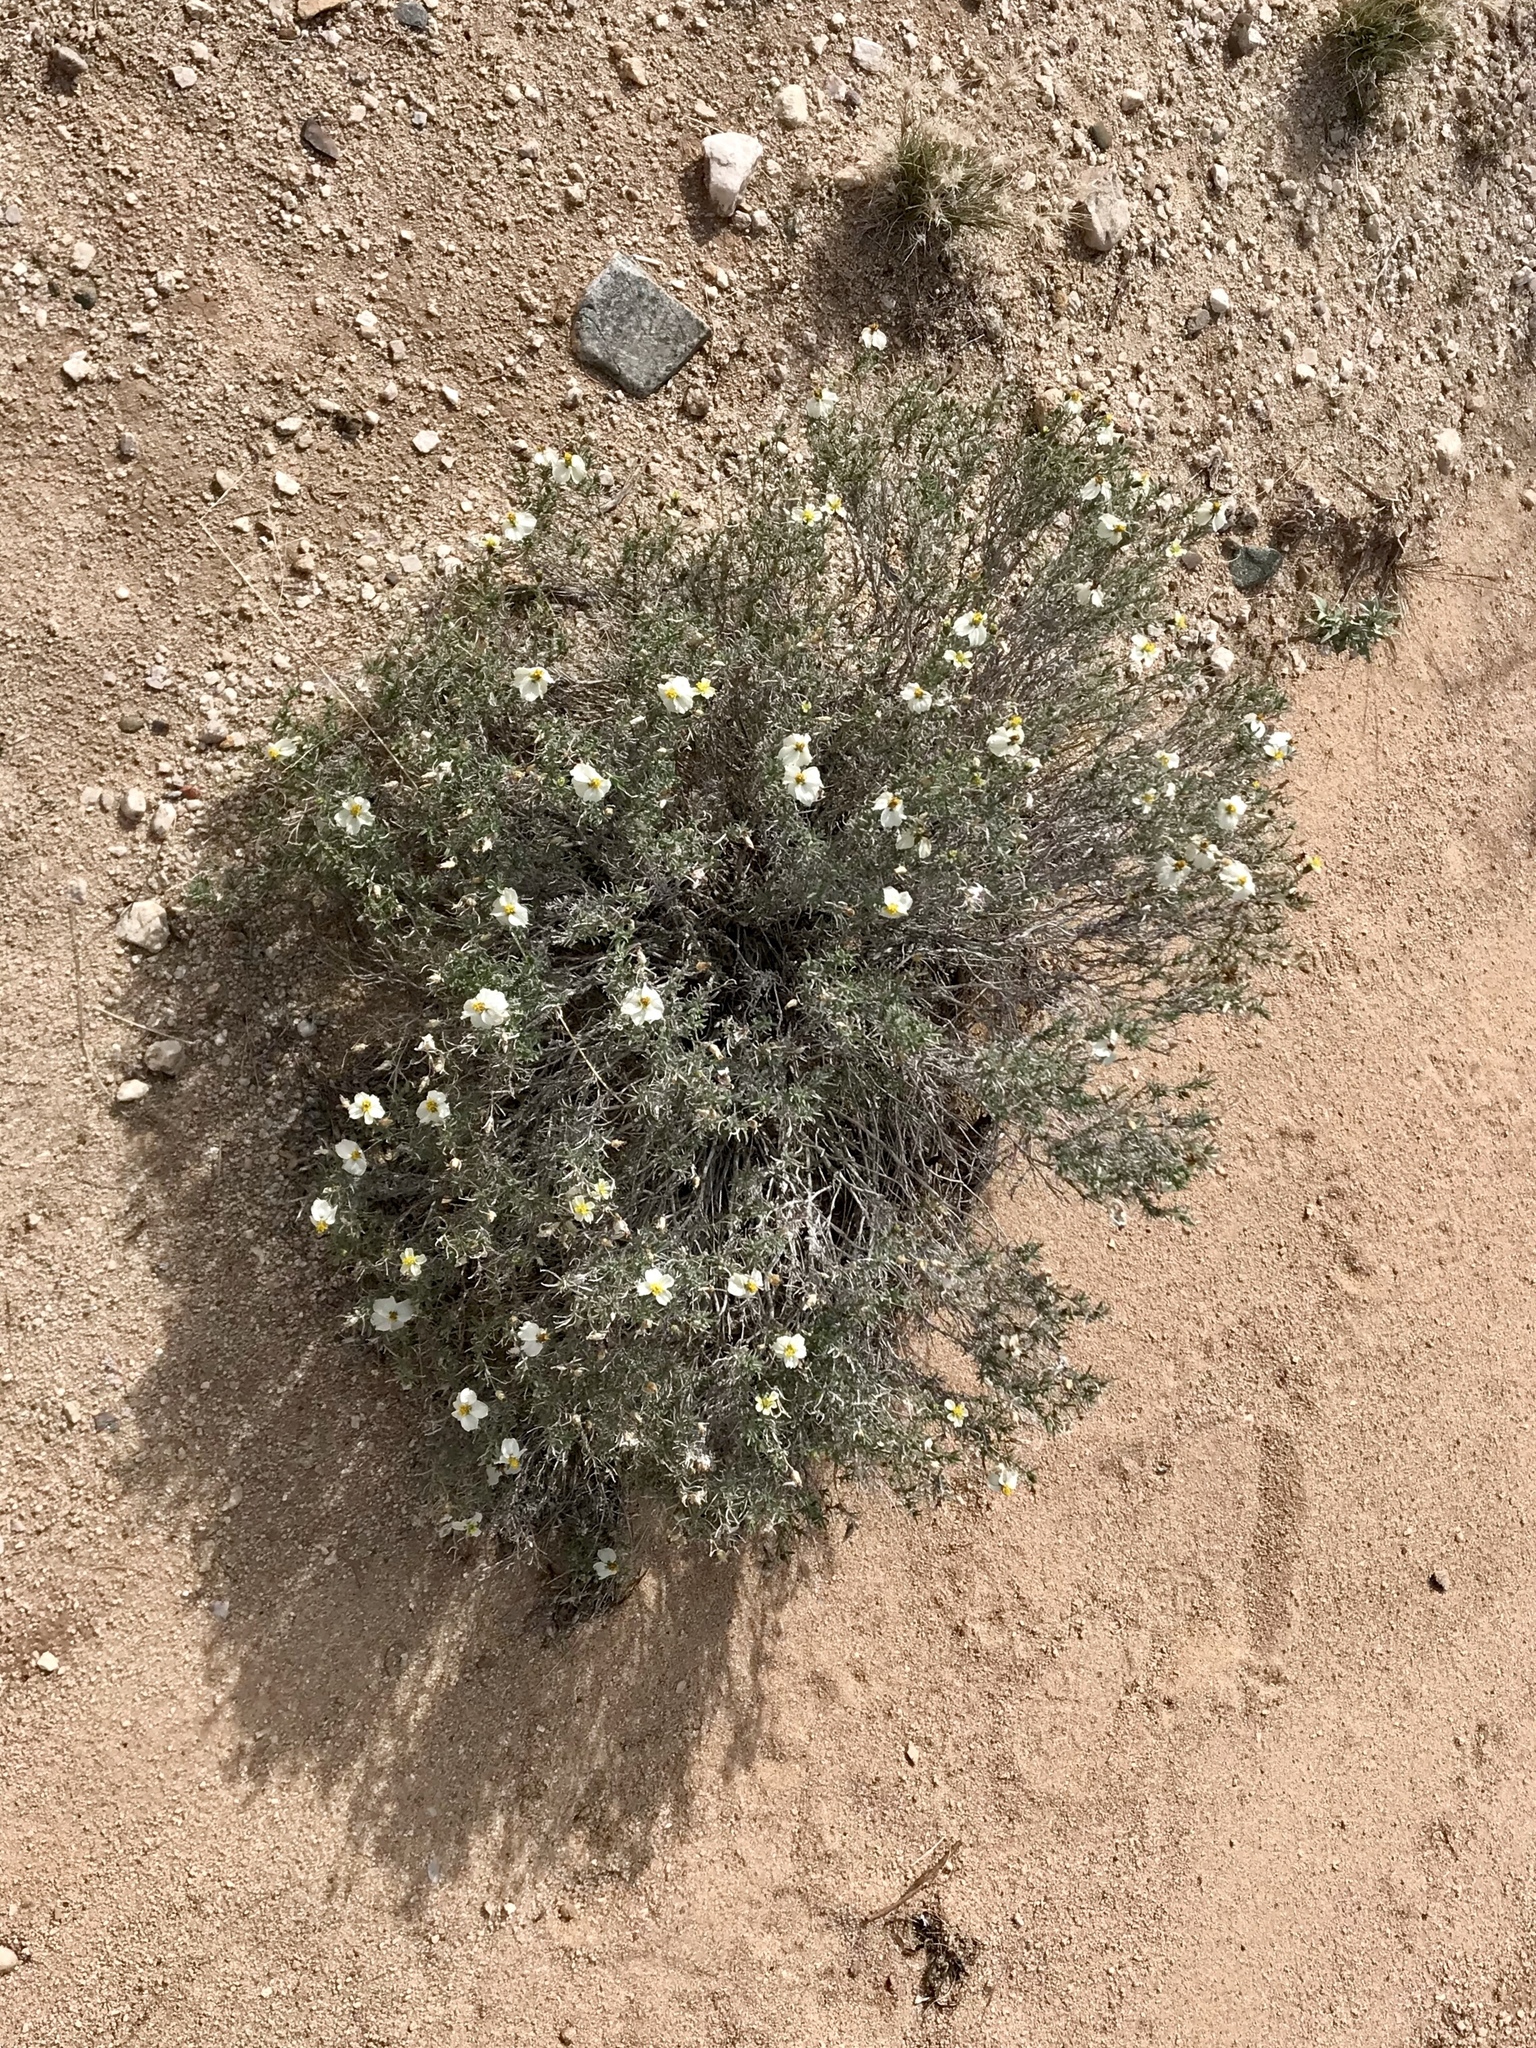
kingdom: Plantae
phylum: Tracheophyta
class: Magnoliopsida
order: Asterales
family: Asteraceae
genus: Zinnia
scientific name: Zinnia acerosa
